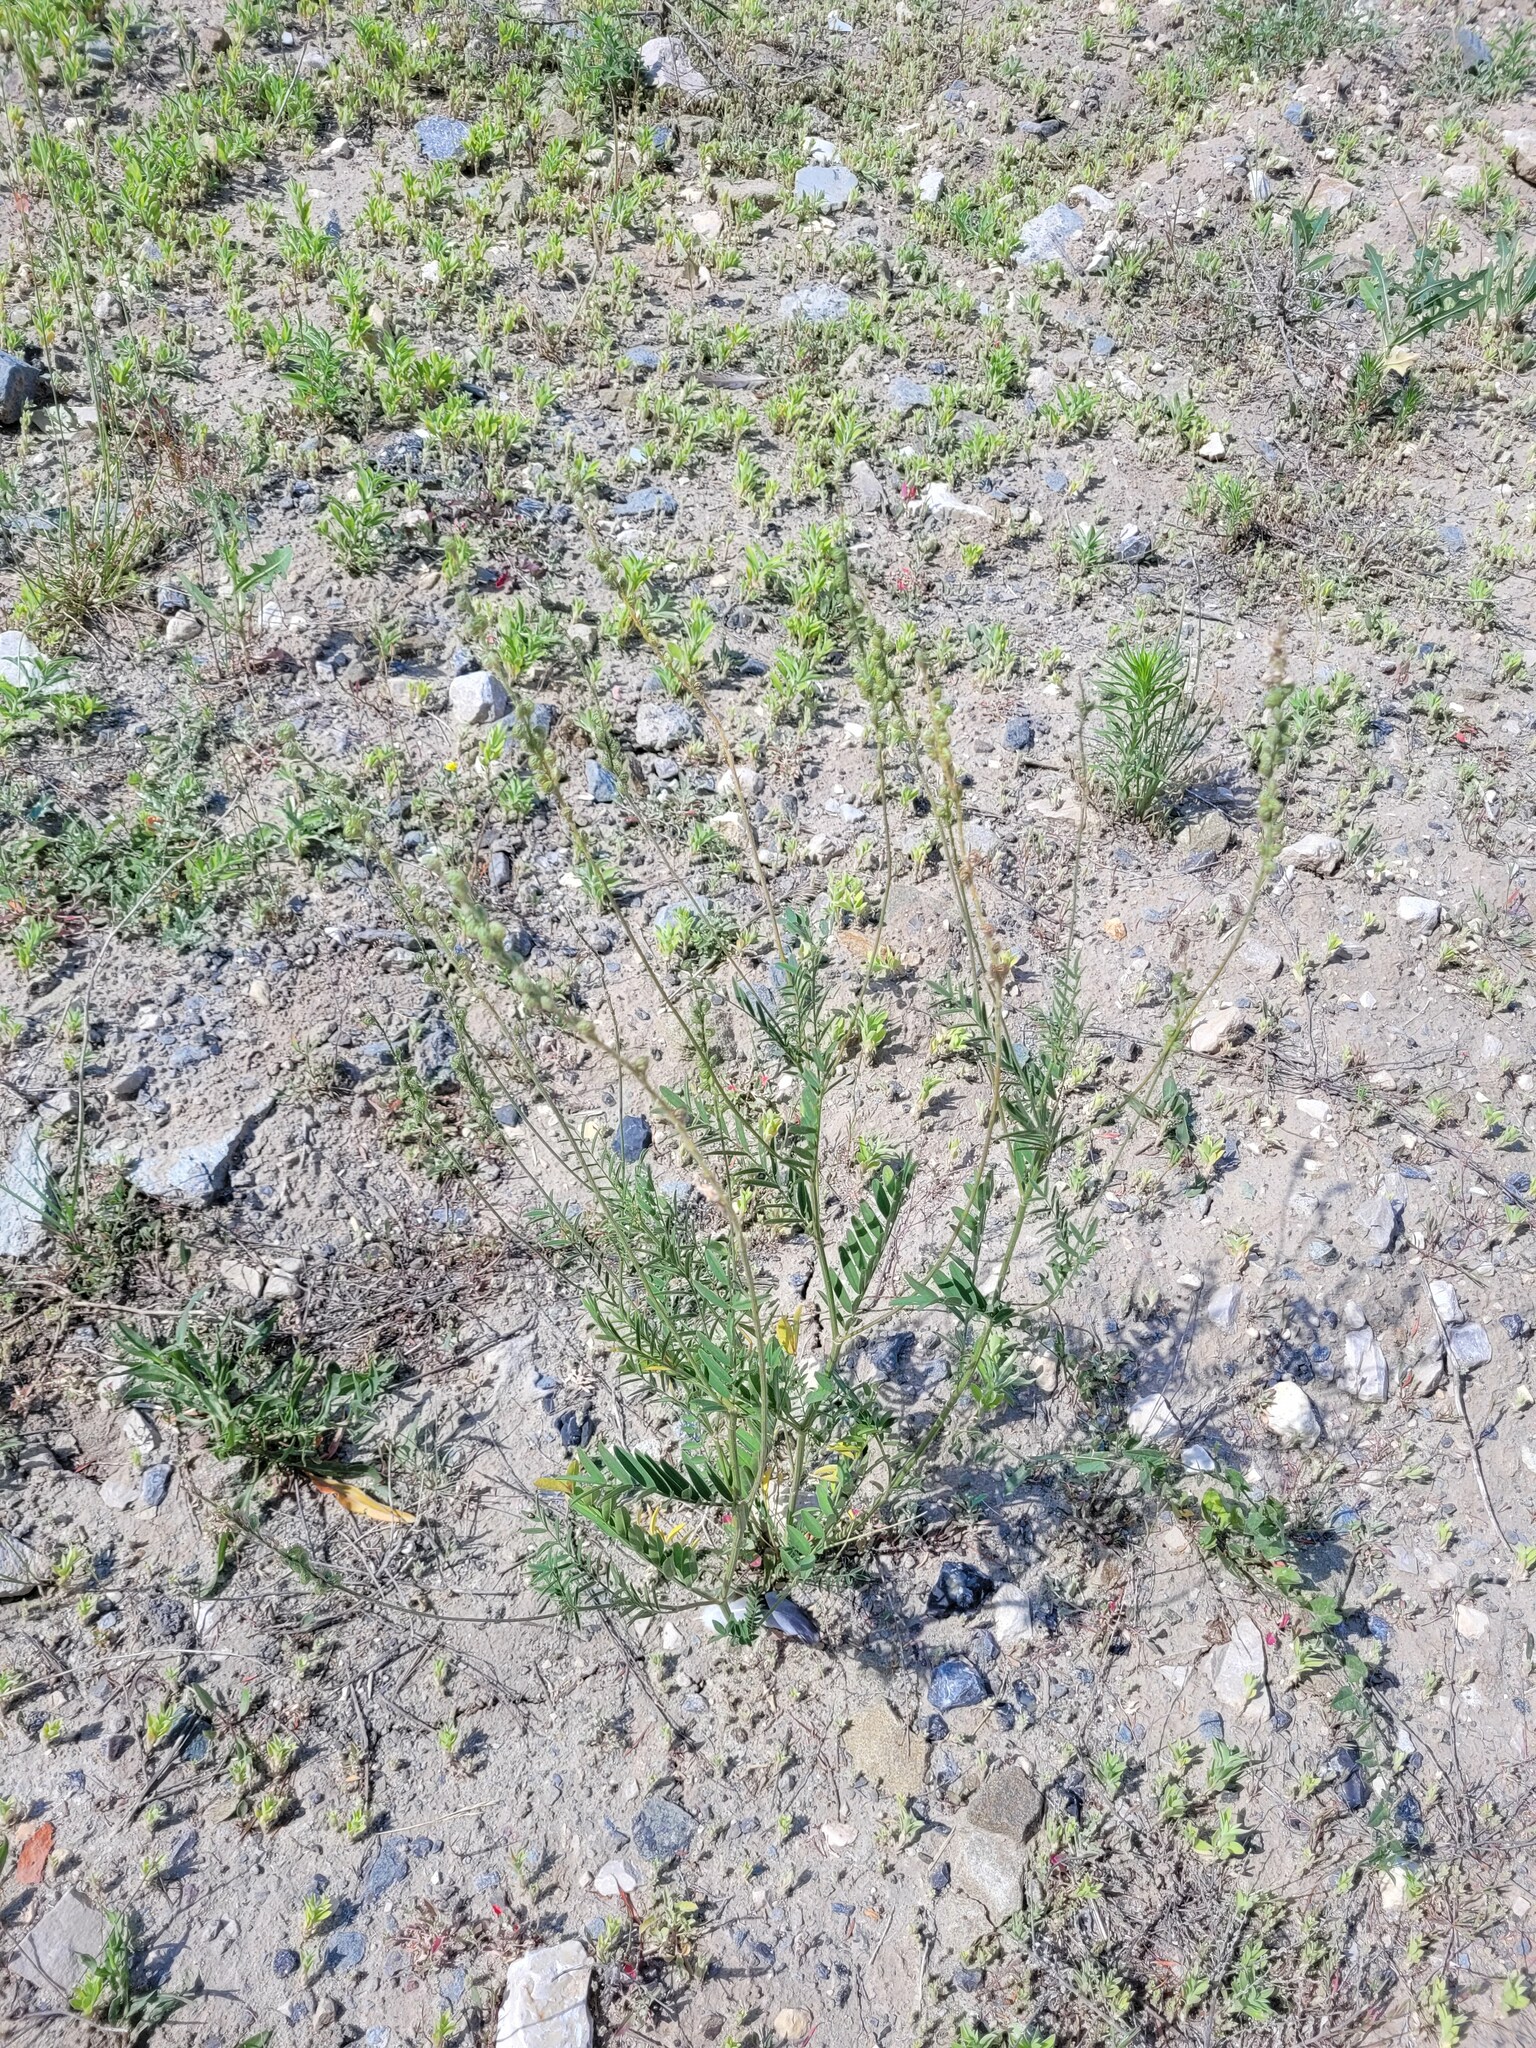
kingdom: Plantae
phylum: Tracheophyta
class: Magnoliopsida
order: Fabales
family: Fabaceae
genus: Onobrychis
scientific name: Onobrychis viciifolia
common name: Sainfoin
